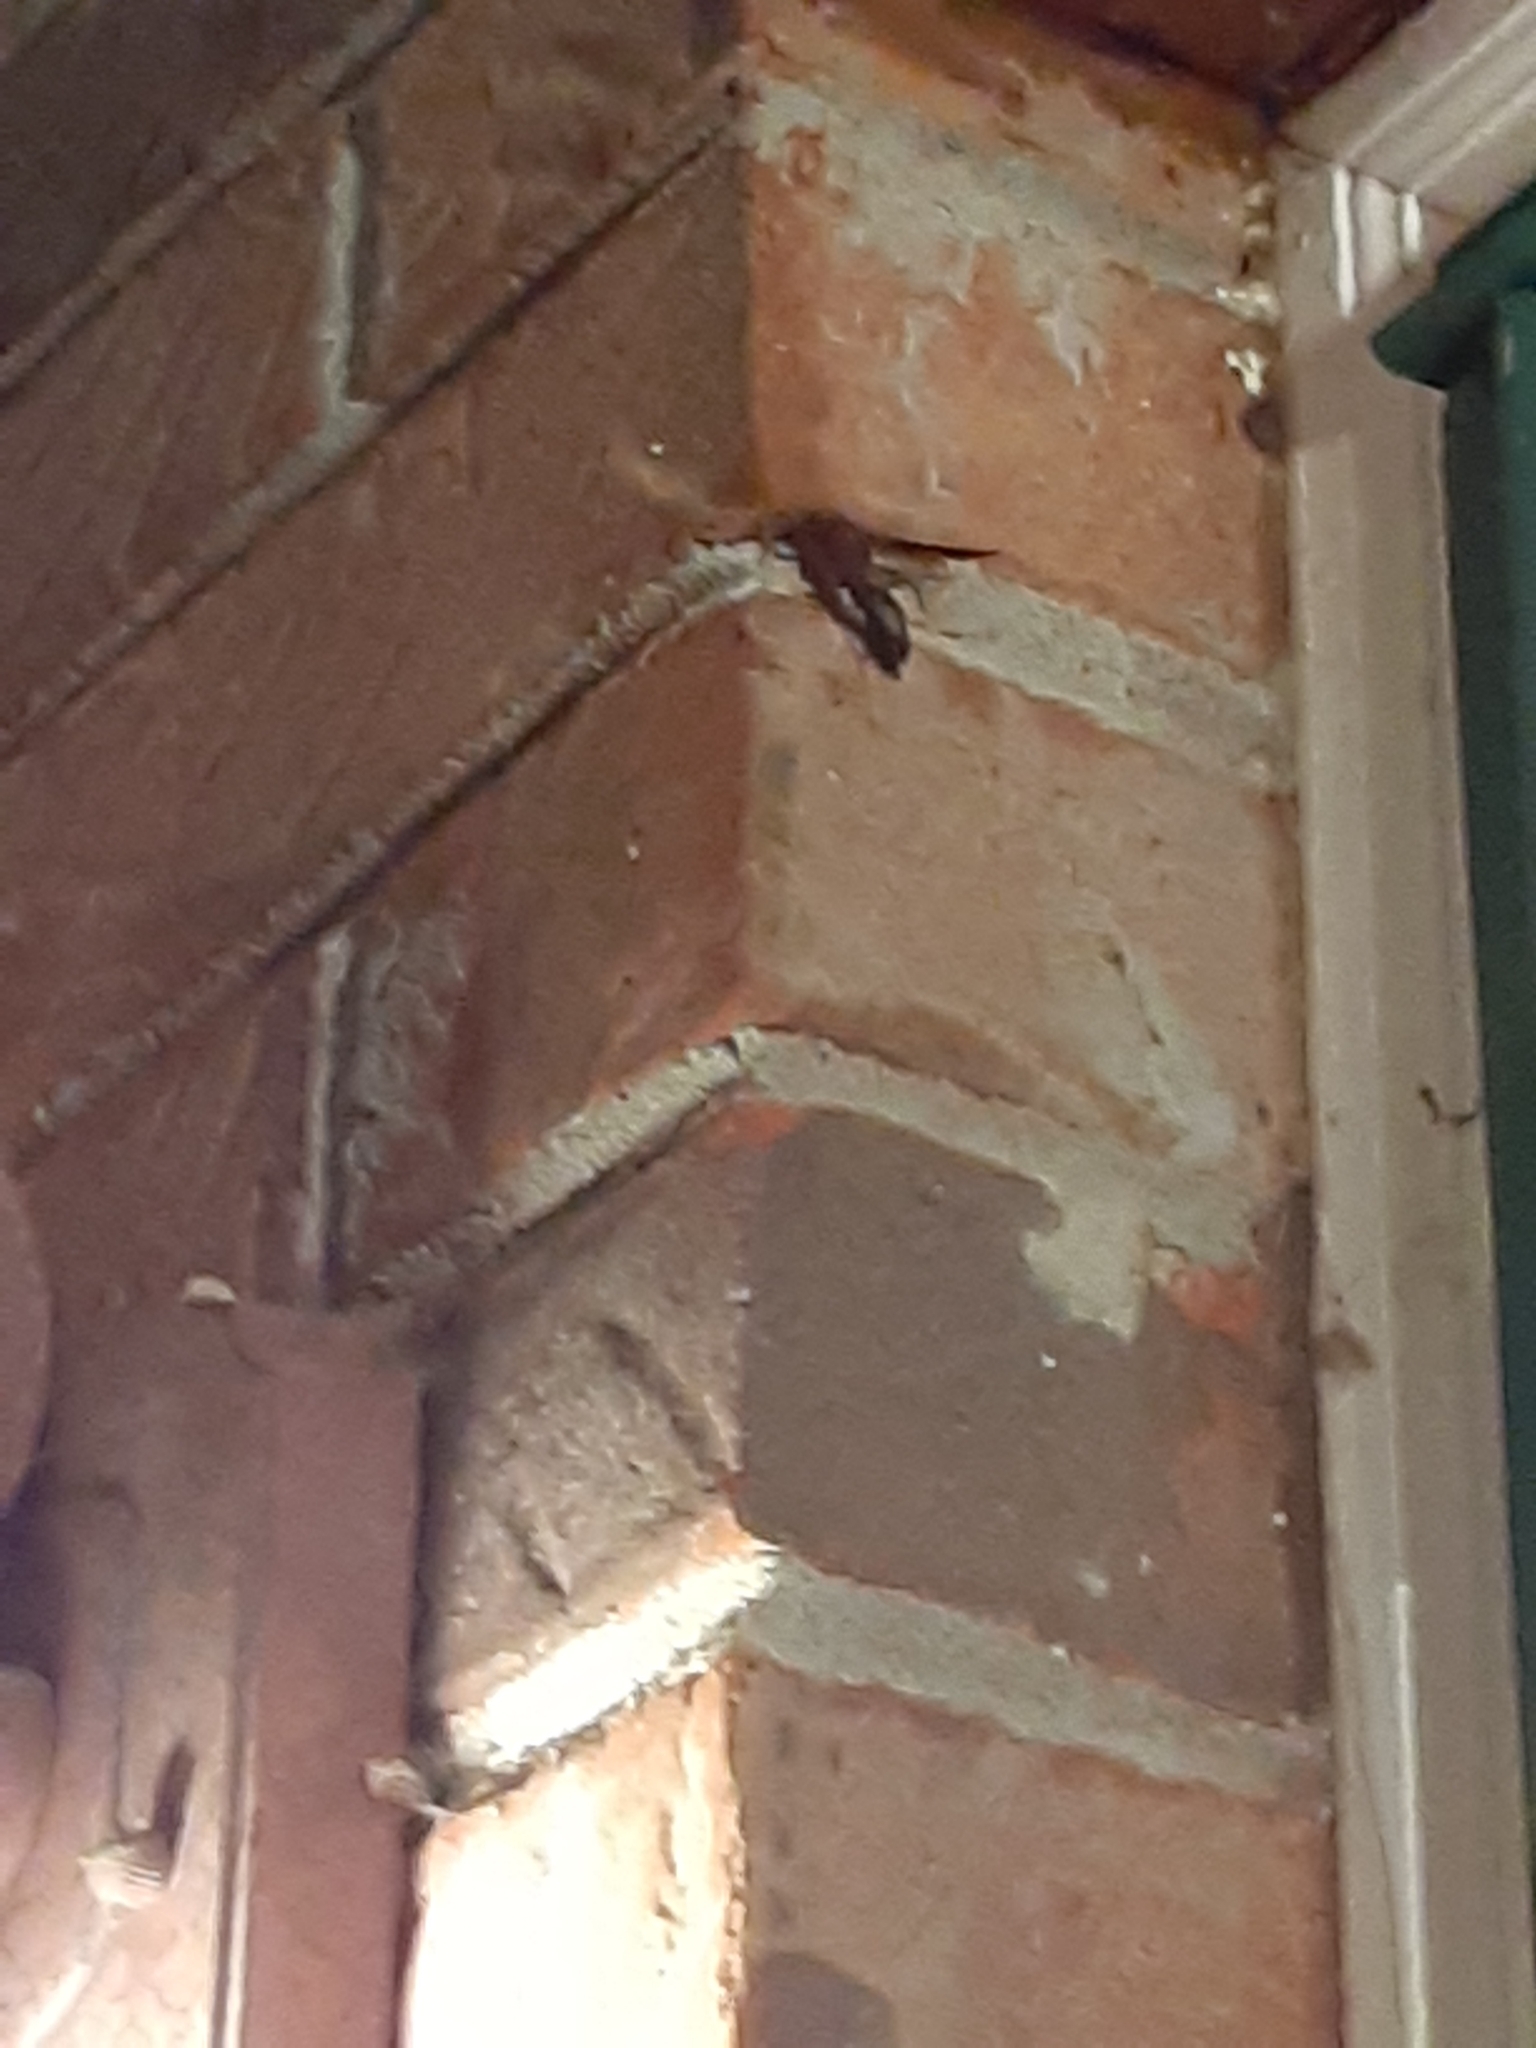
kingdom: Animalia
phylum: Arthropoda
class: Insecta
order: Hymenoptera
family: Eumenidae
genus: Polistes
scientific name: Polistes metricus
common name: Metric paper wasp
